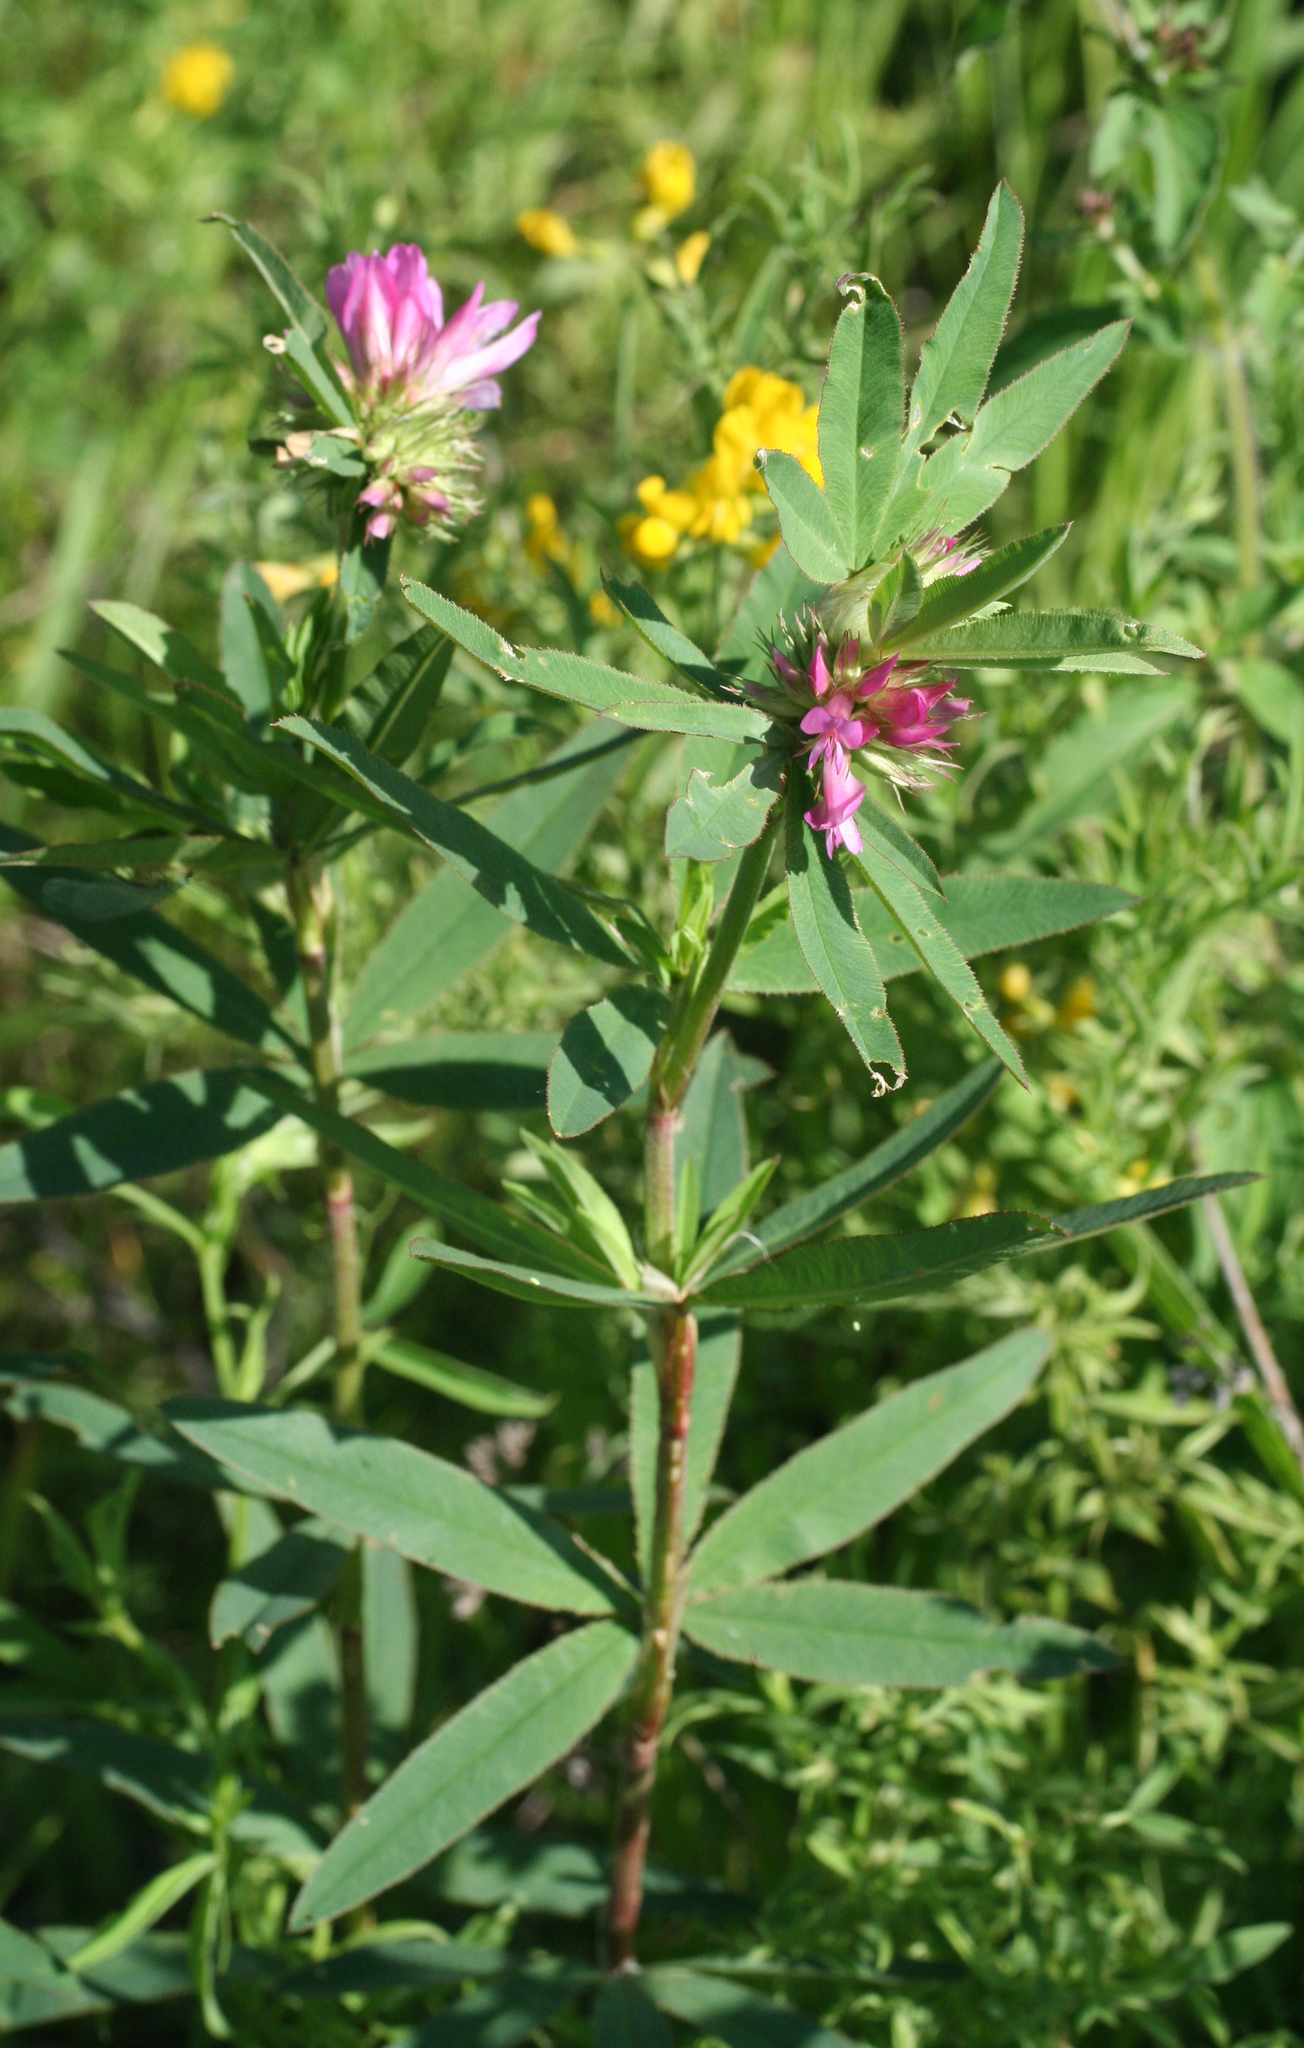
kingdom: Plantae
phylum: Tracheophyta
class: Magnoliopsida
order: Fabales
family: Fabaceae
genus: Trifolium
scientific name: Trifolium lupinaster
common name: Lupine clover
